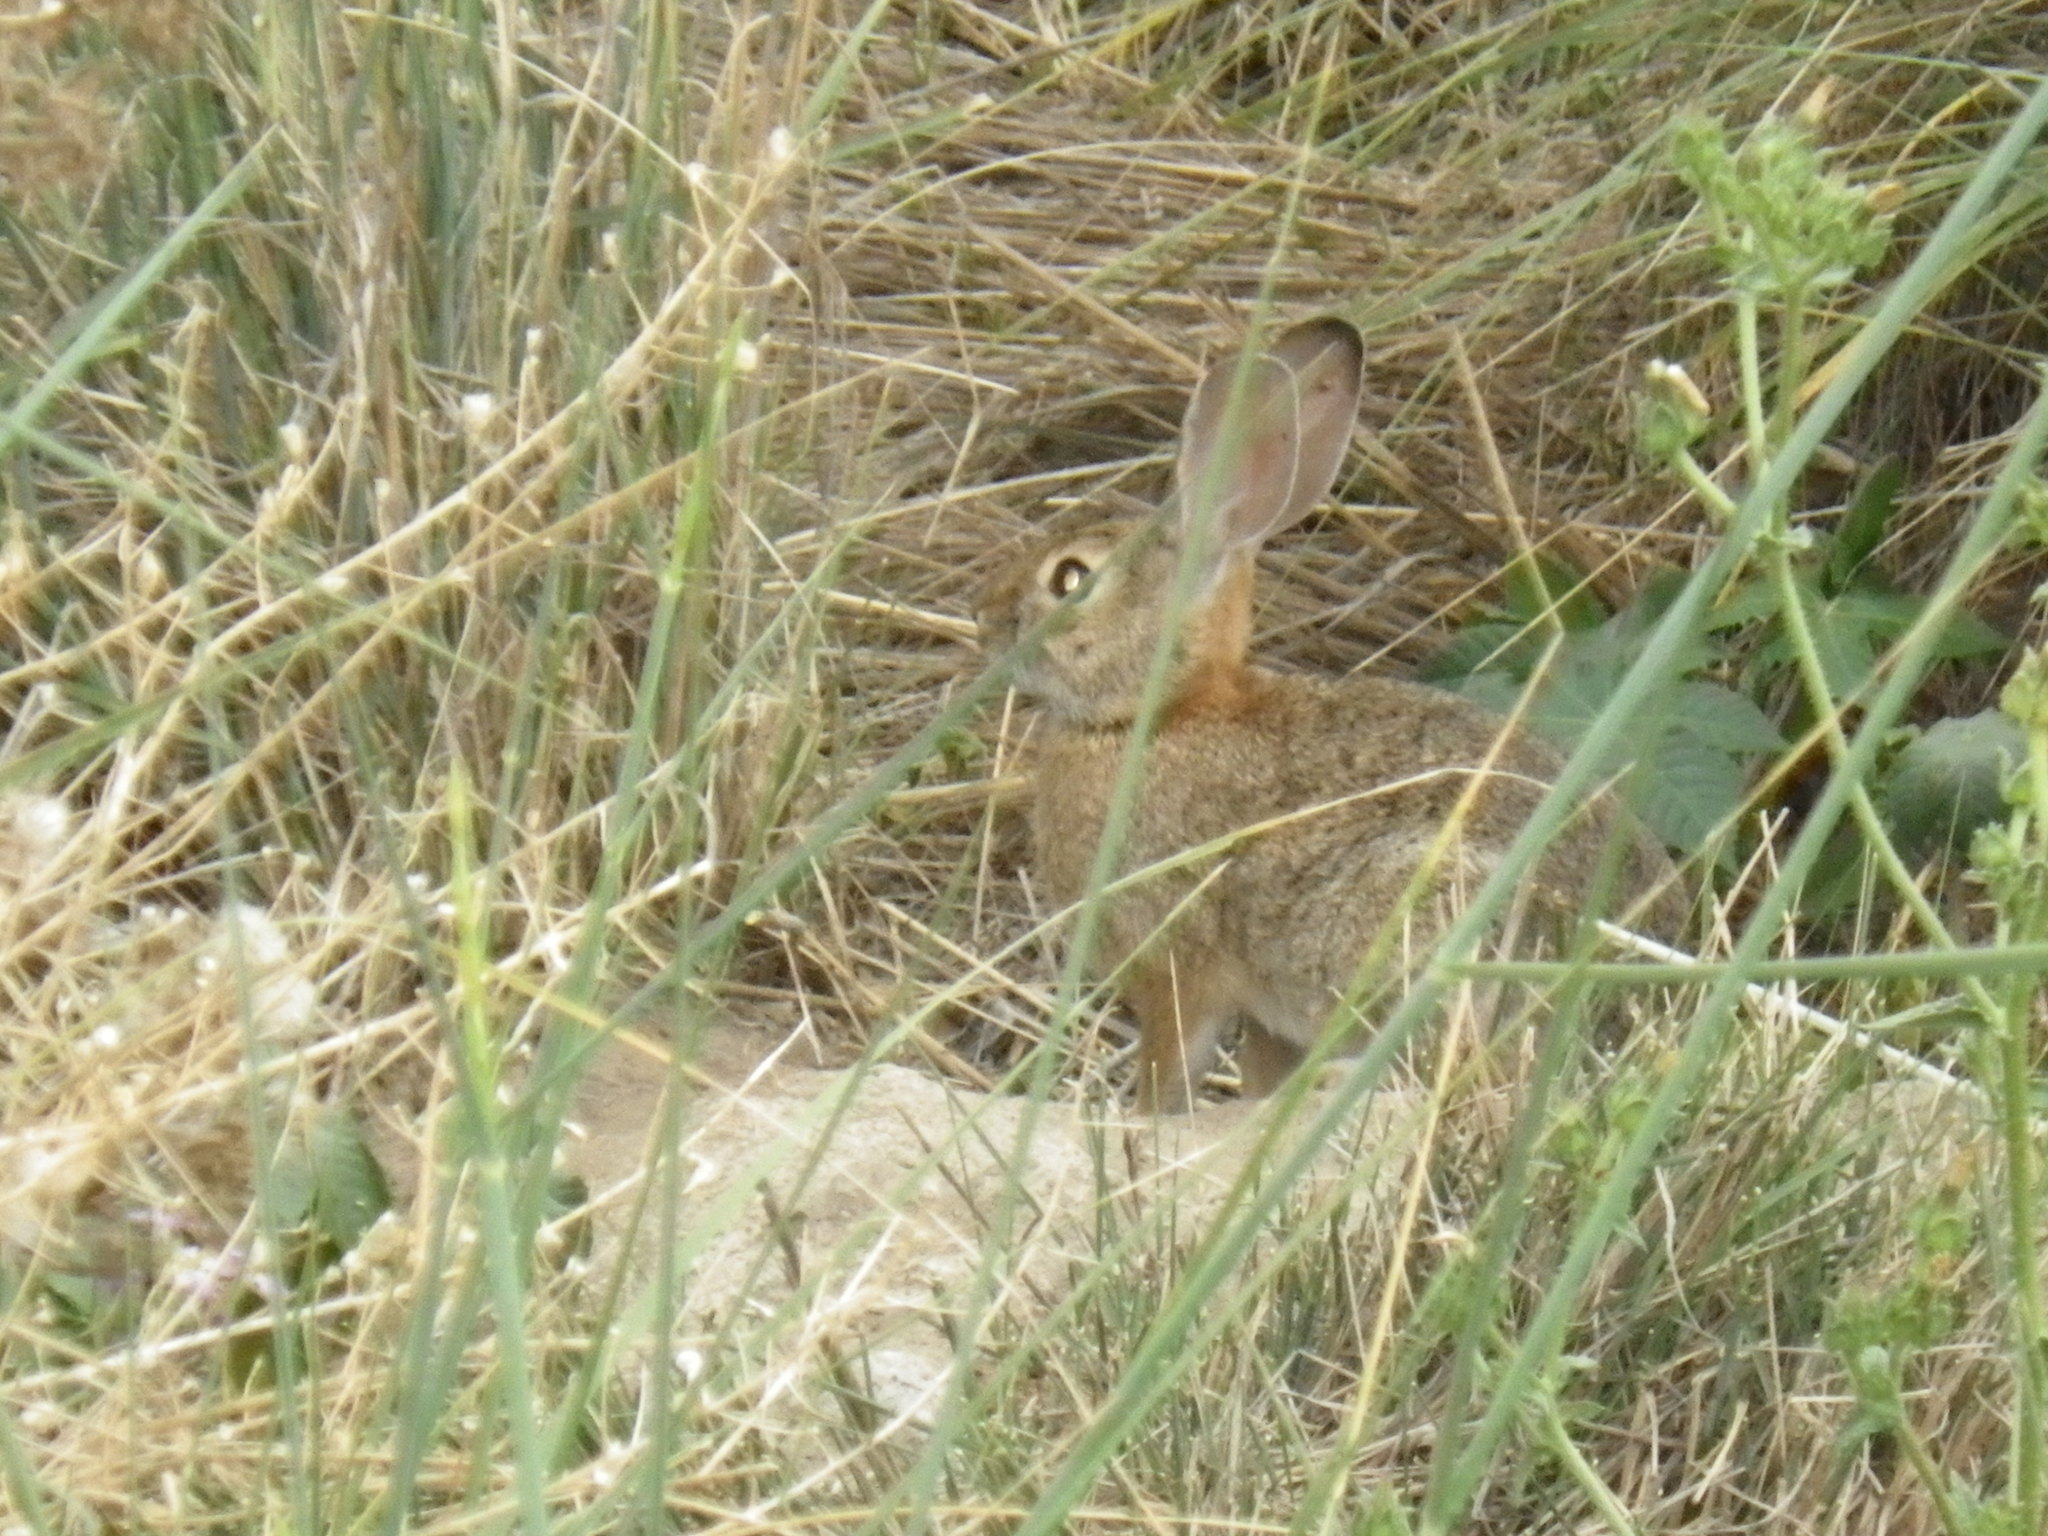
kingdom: Animalia
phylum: Chordata
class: Mammalia
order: Lagomorpha
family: Leporidae
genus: Sylvilagus
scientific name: Sylvilagus audubonii
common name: Desert cottontail
